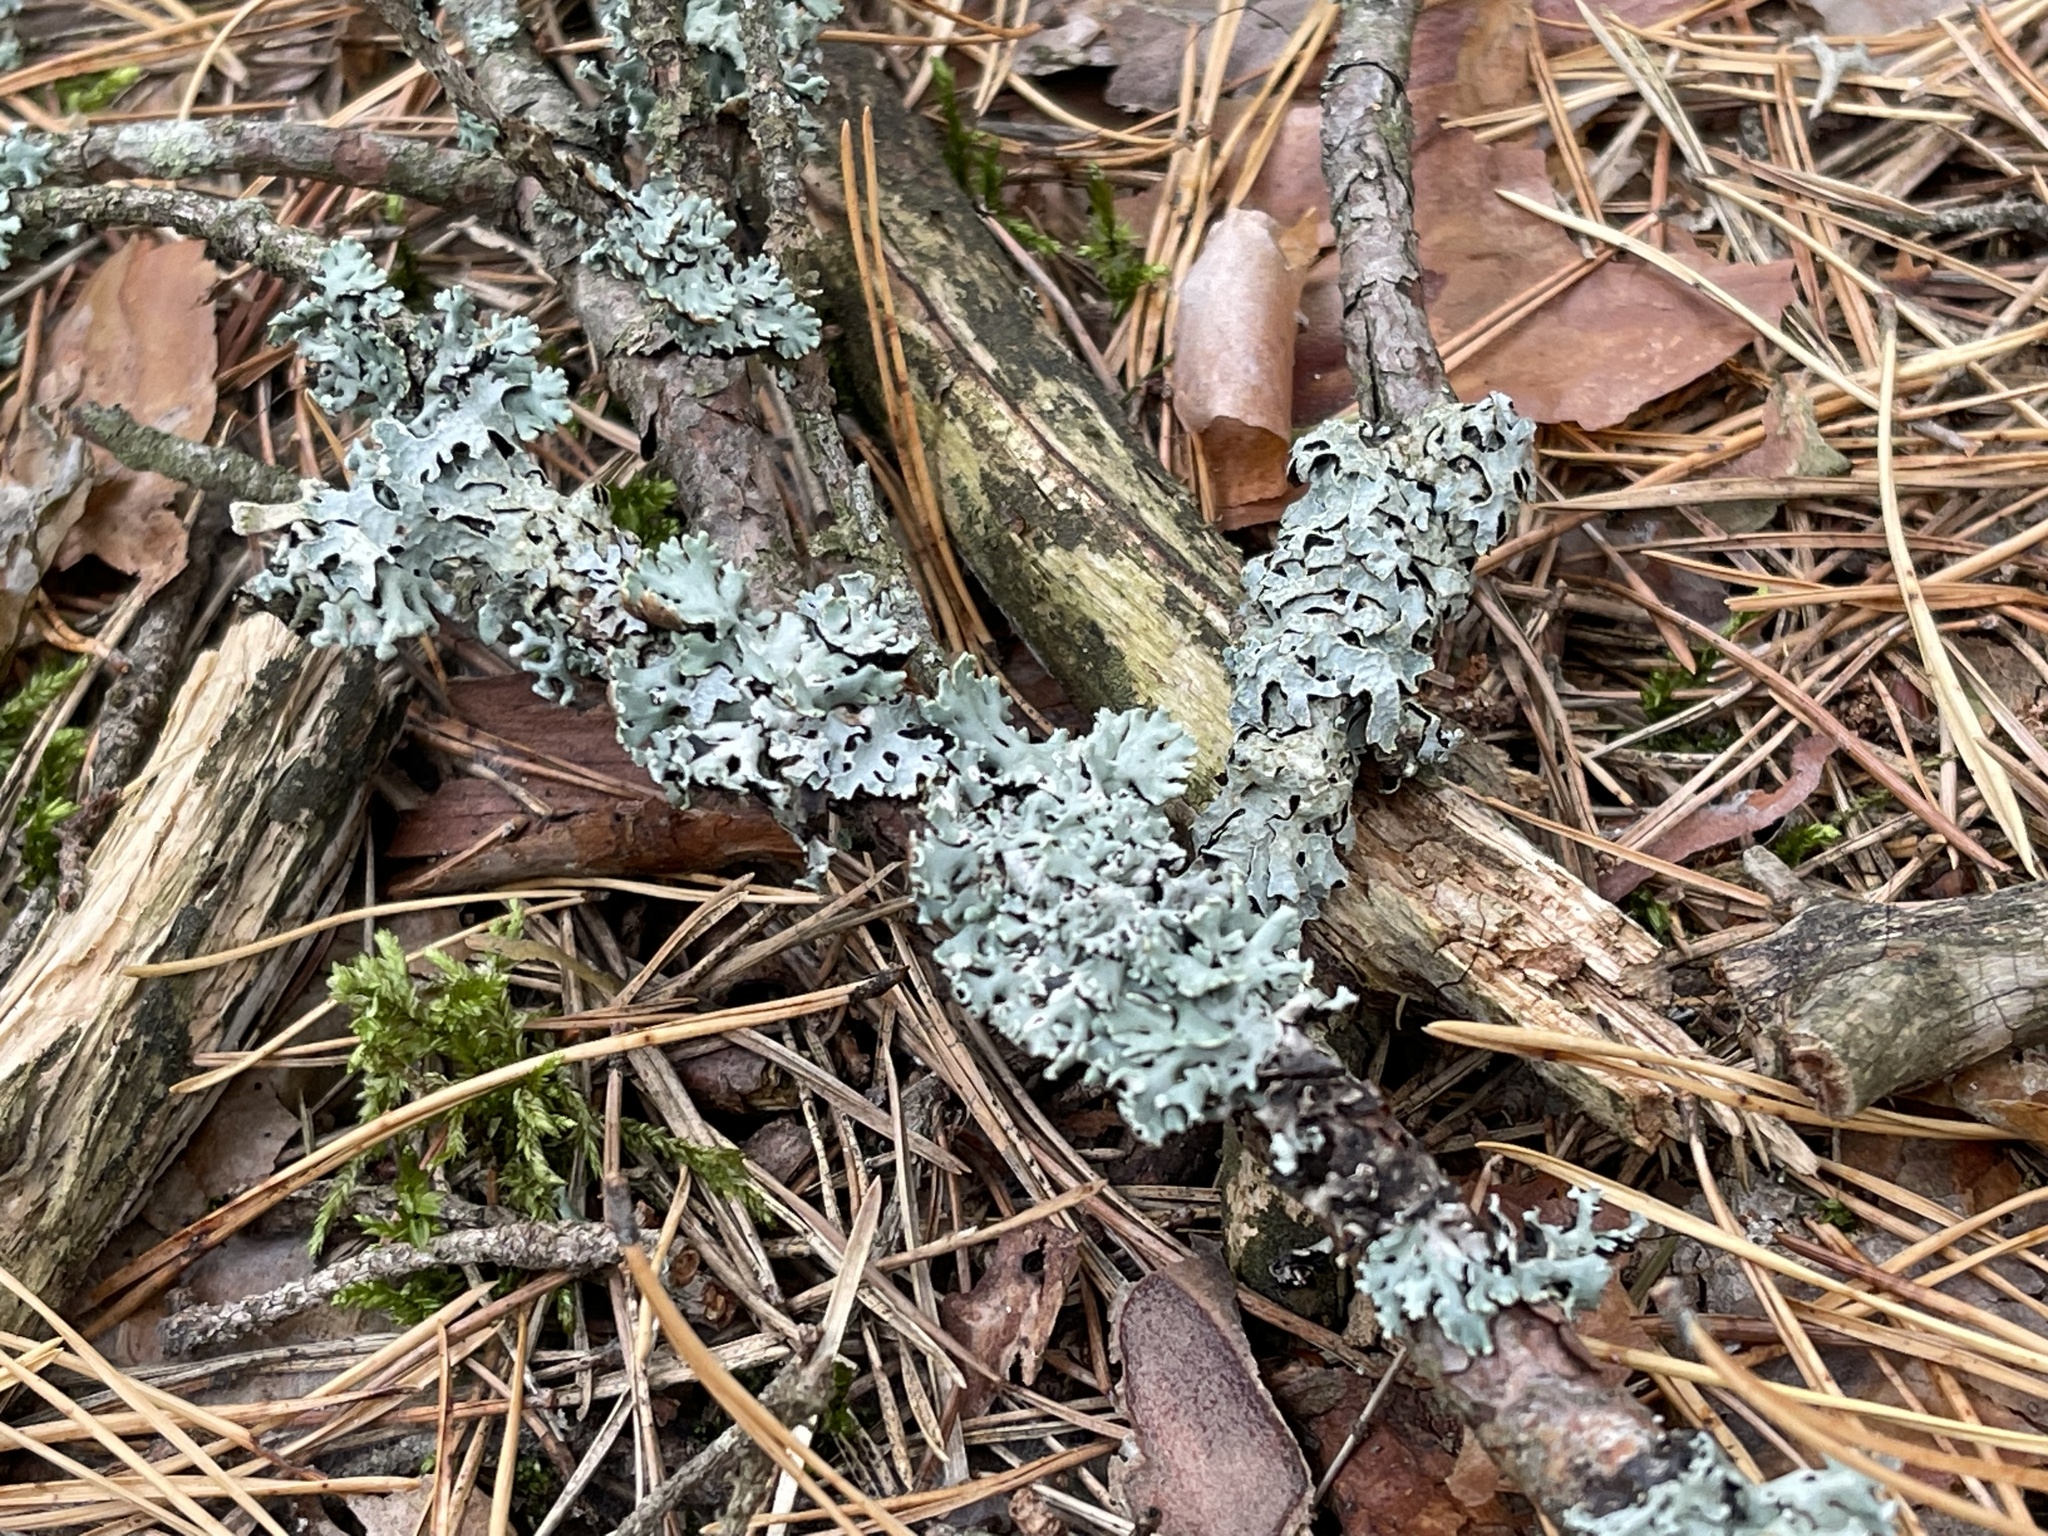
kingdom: Fungi
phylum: Ascomycota
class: Lecanoromycetes
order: Lecanorales
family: Parmeliaceae
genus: Hypogymnia
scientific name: Hypogymnia physodes
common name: Dark crottle
